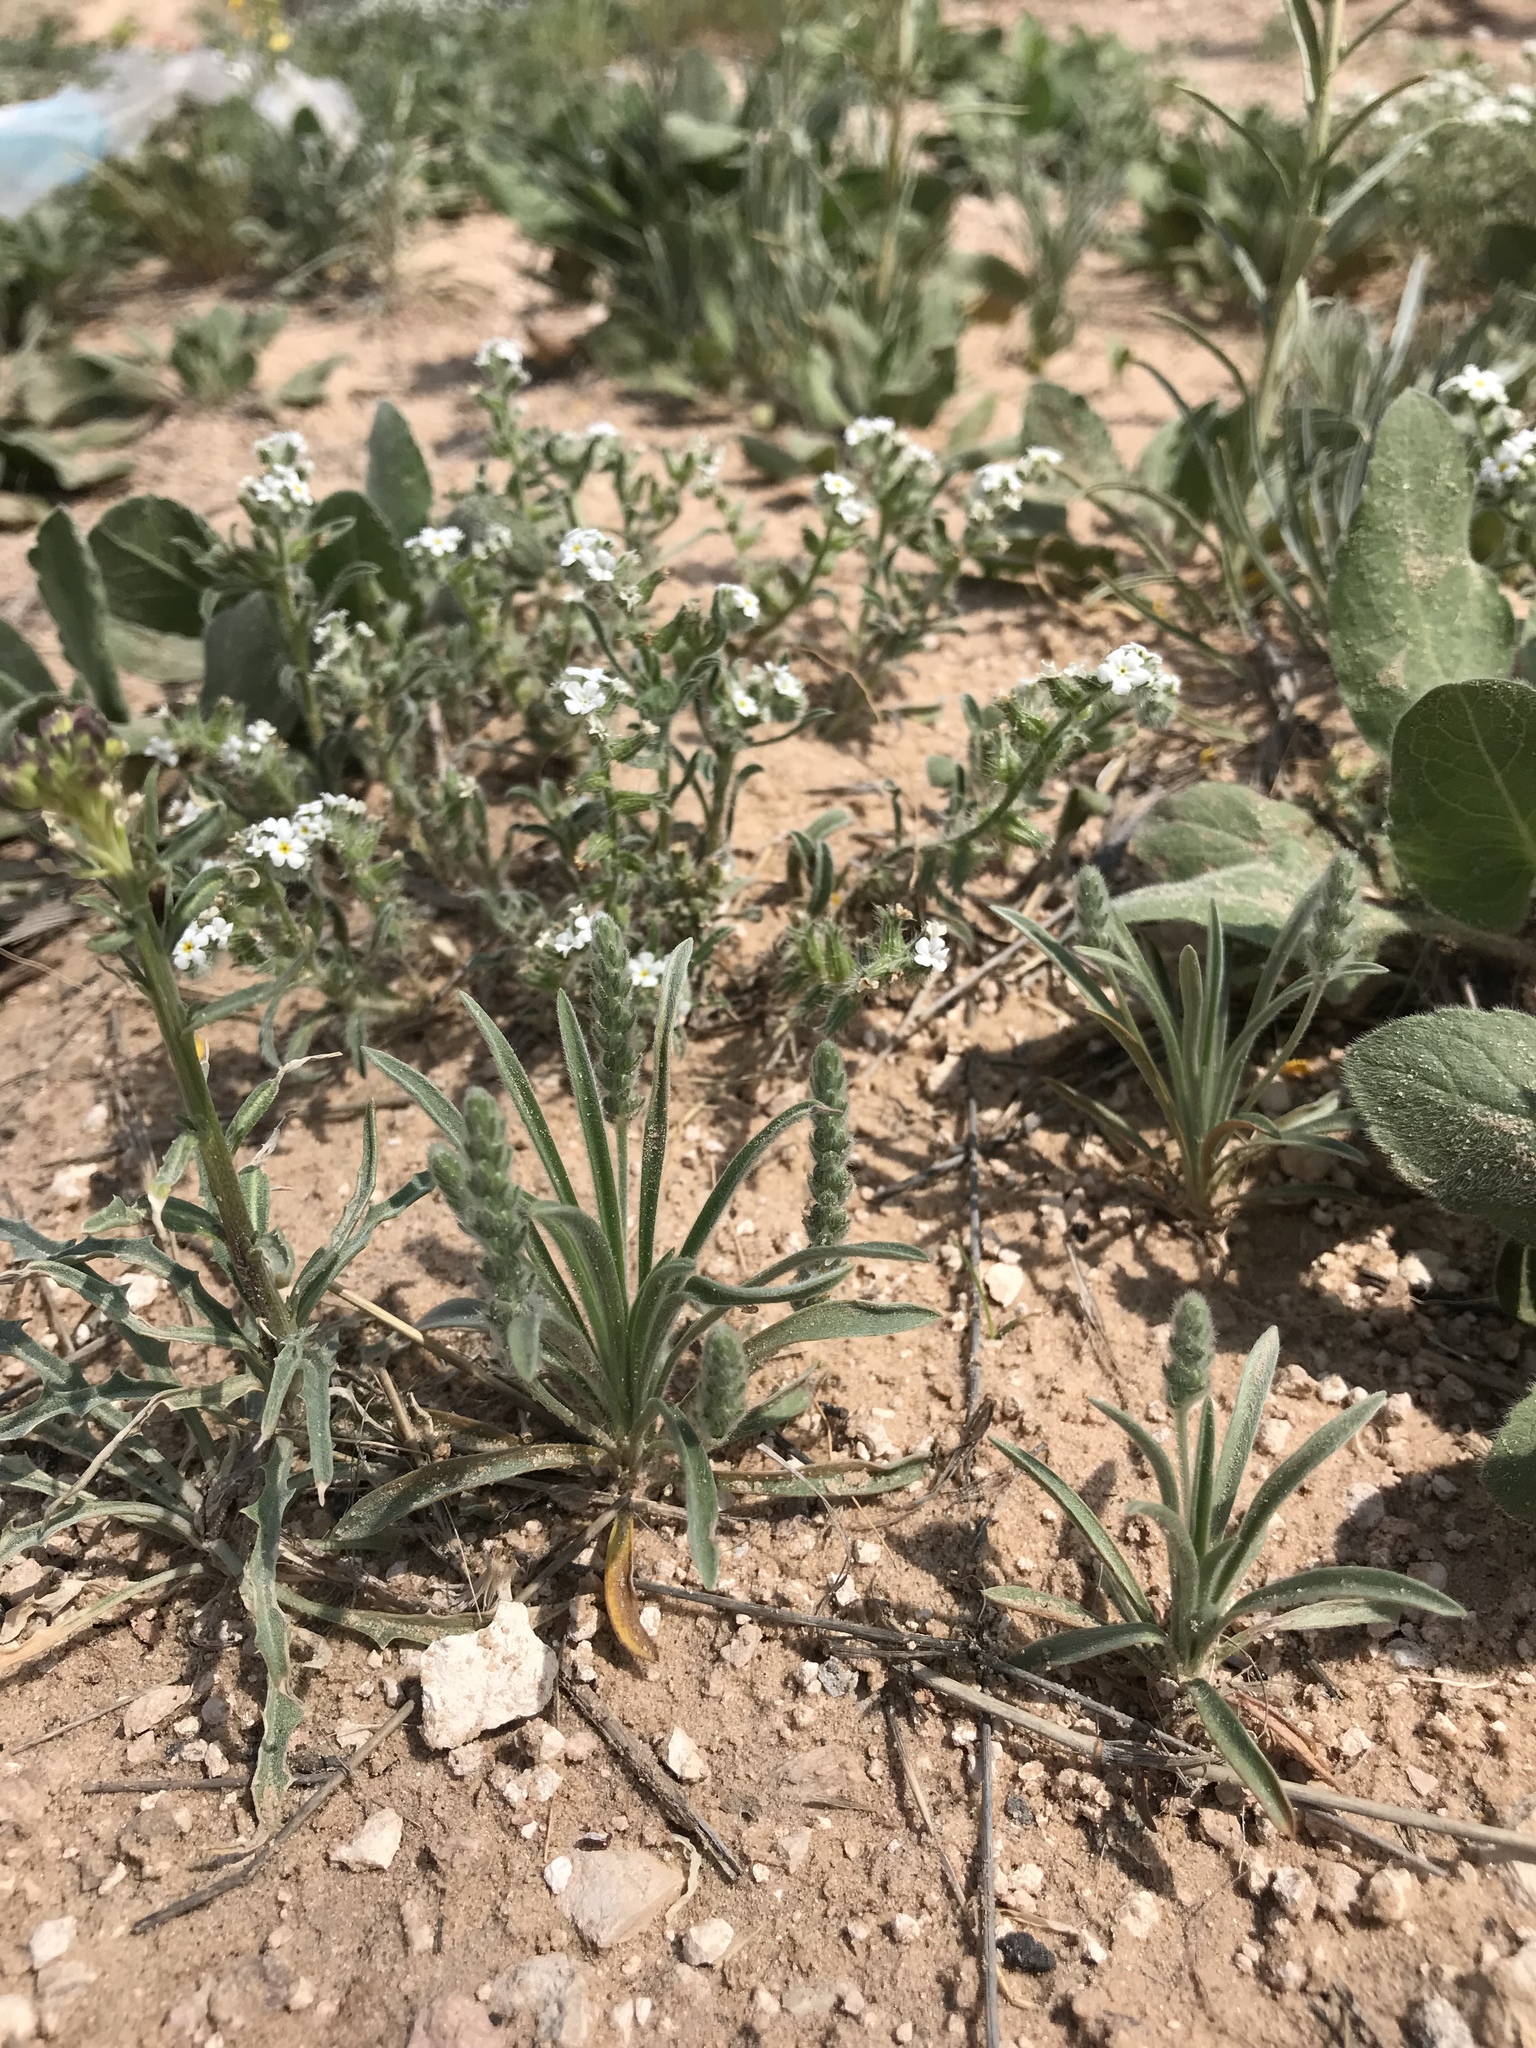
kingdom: Plantae
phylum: Tracheophyta
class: Magnoliopsida
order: Lamiales
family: Plantaginaceae
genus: Plantago
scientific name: Plantago patagonica
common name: Patagonia indian-wheat
